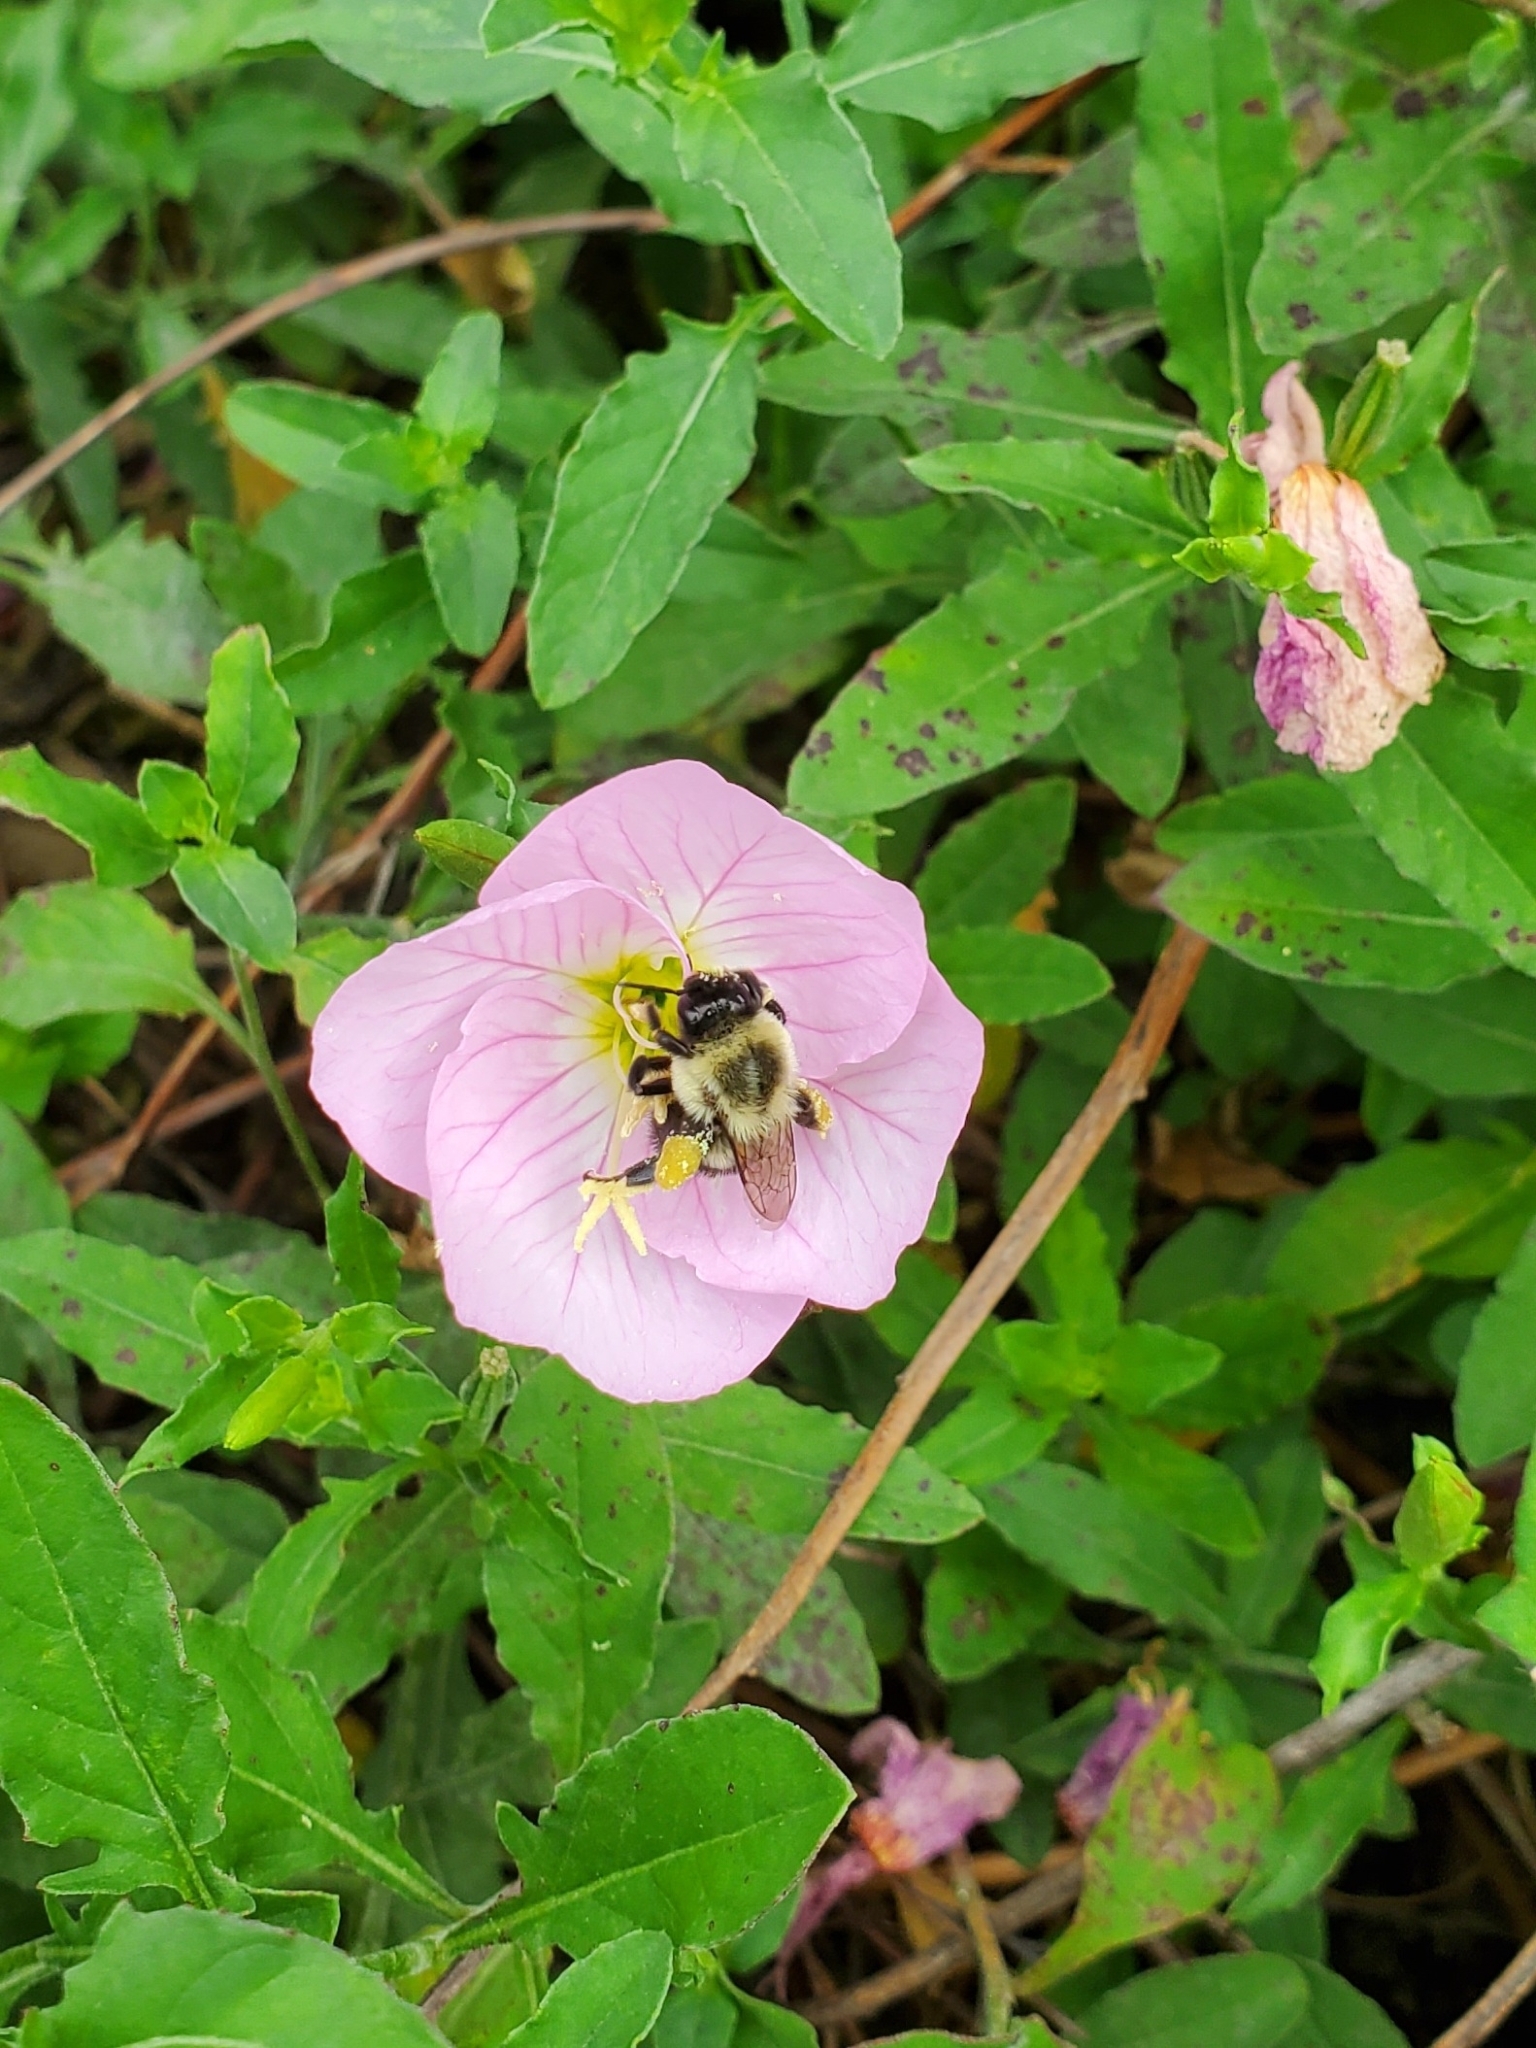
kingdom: Plantae
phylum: Tracheophyta
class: Magnoliopsida
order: Myrtales
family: Onagraceae
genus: Oenothera
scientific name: Oenothera speciosa
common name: White evening-primrose
